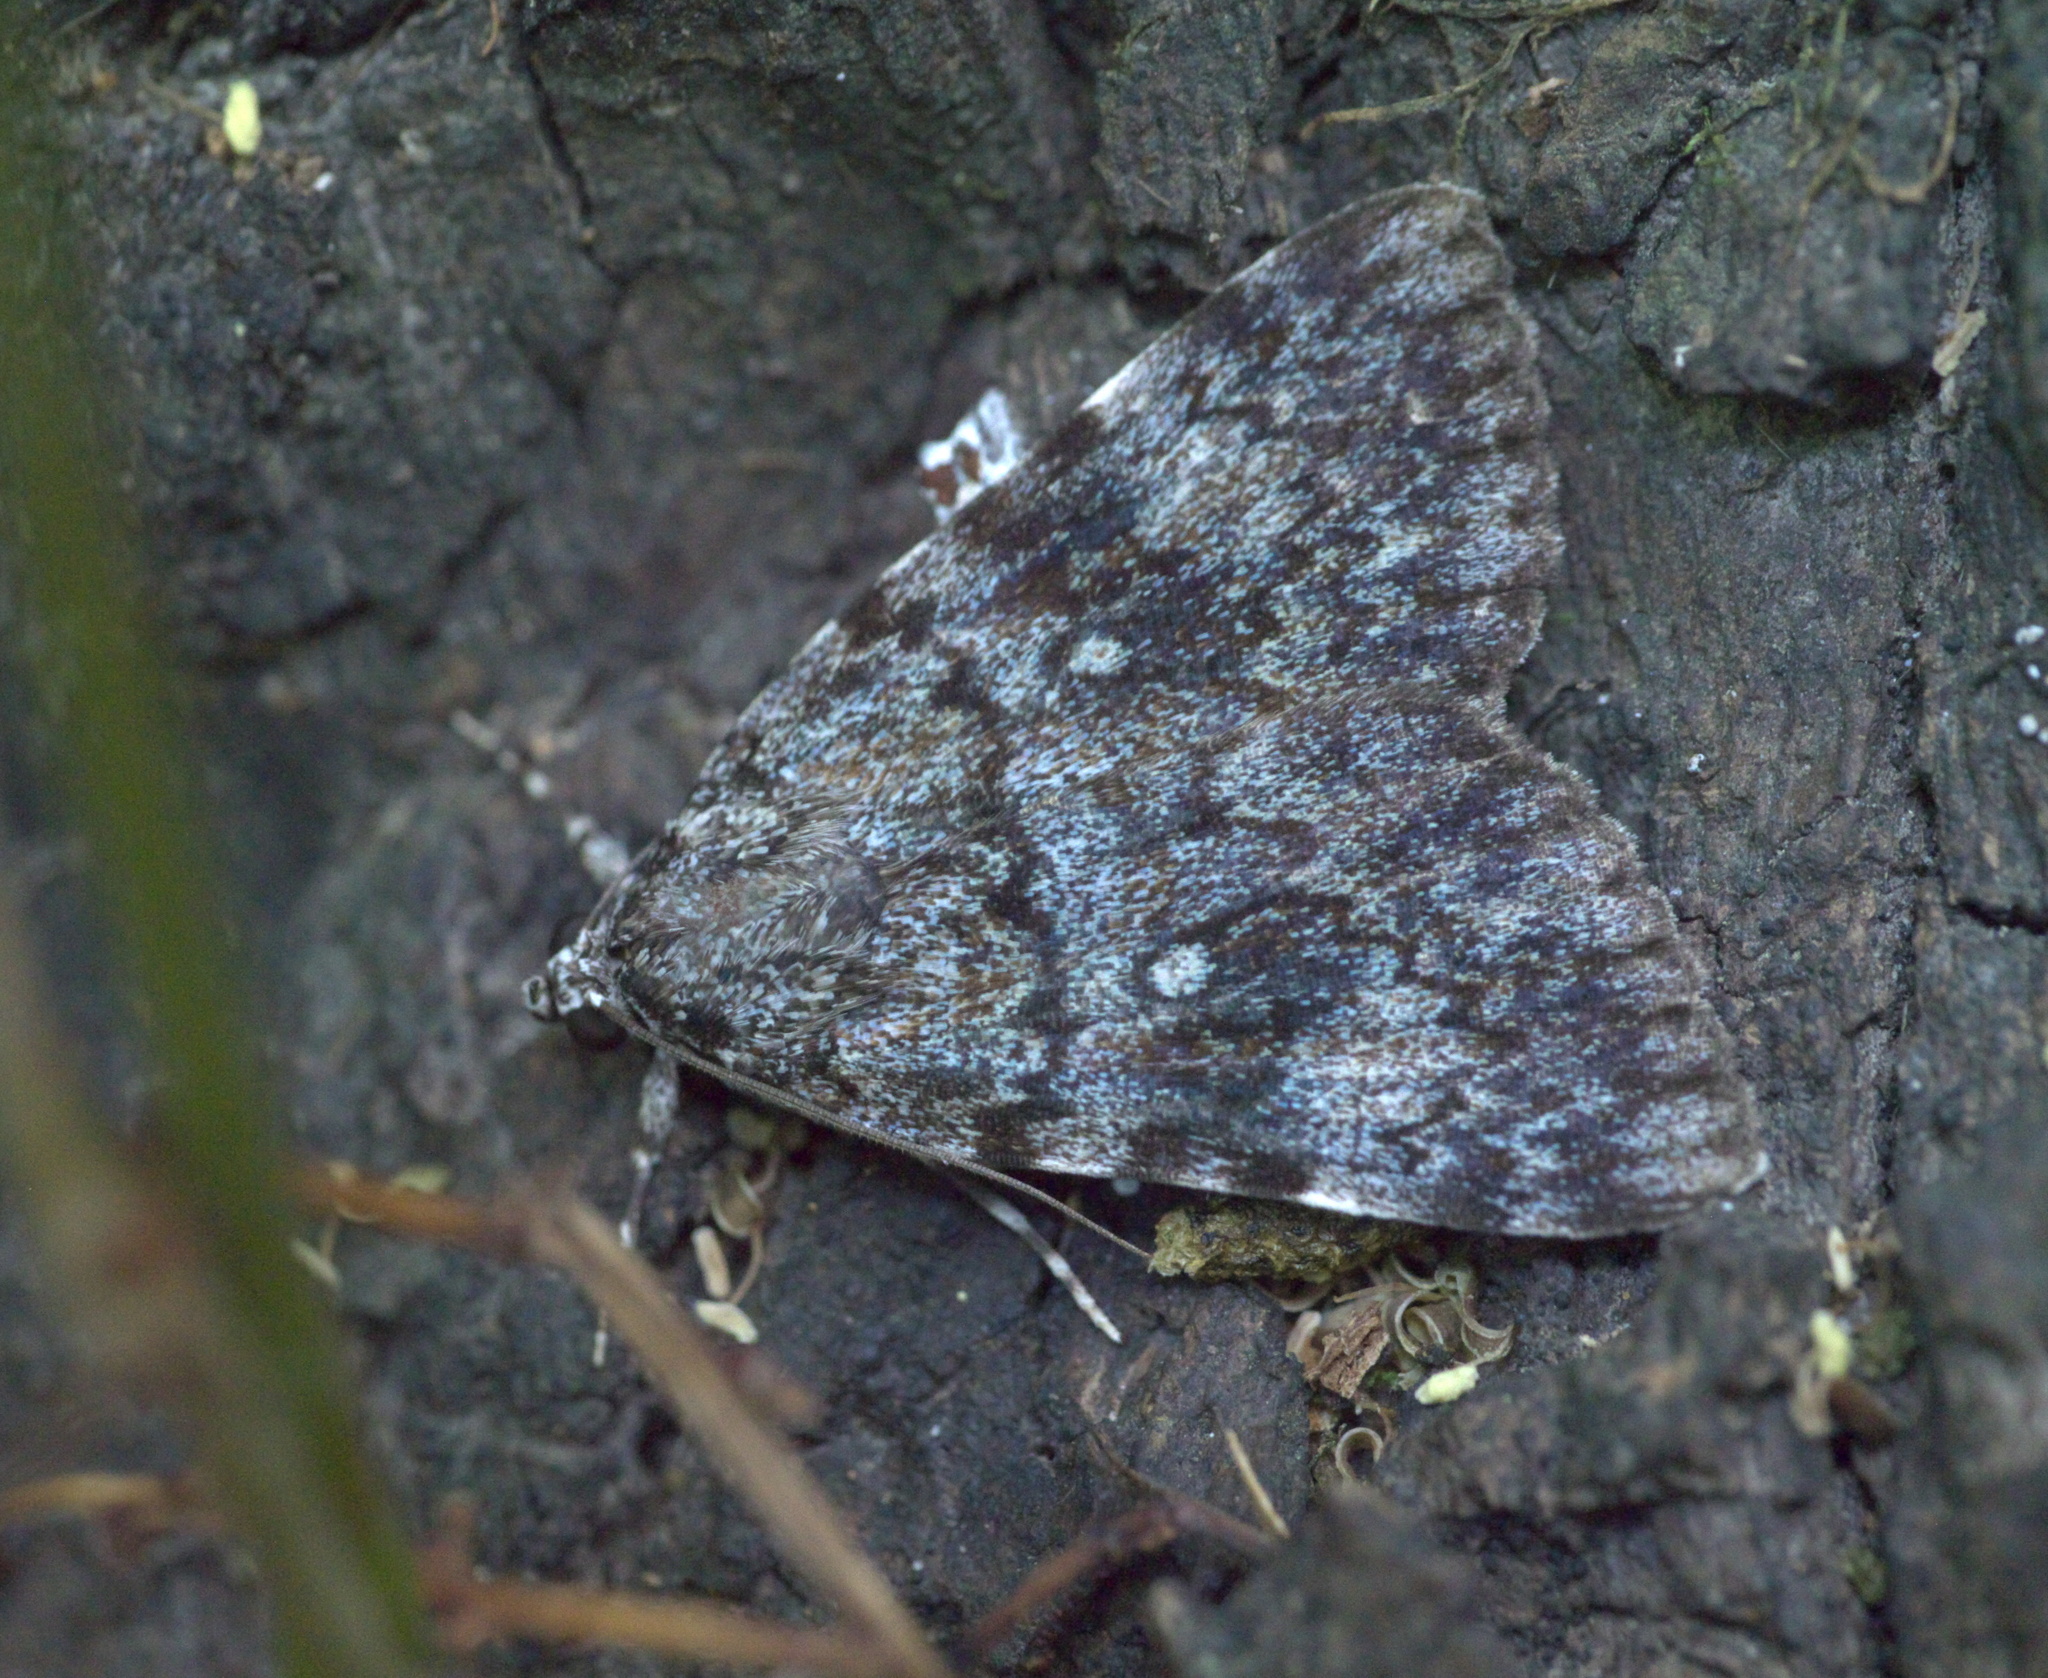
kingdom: Animalia
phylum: Arthropoda
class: Insecta
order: Lepidoptera
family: Erebidae
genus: Catocala
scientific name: Catocala lineella
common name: Little lined underwing
